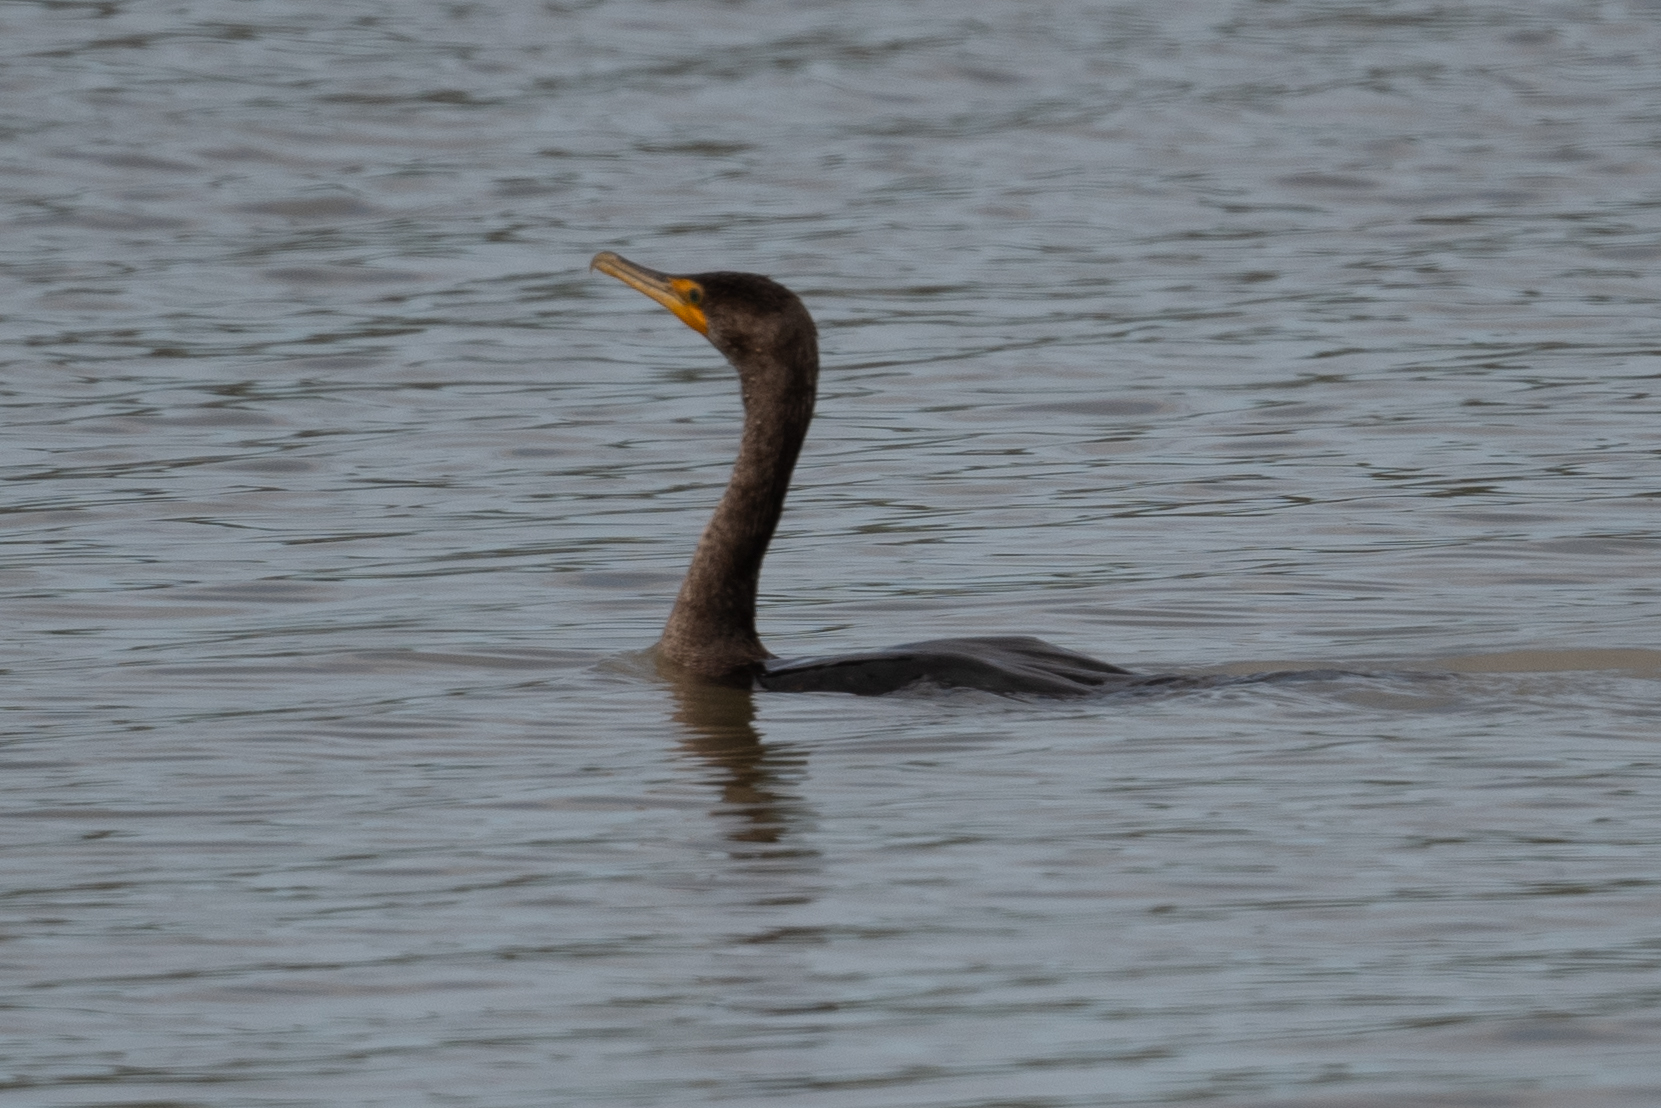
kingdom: Animalia
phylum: Chordata
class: Aves
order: Suliformes
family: Phalacrocoracidae
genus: Phalacrocorax
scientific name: Phalacrocorax auritus
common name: Double-crested cormorant
